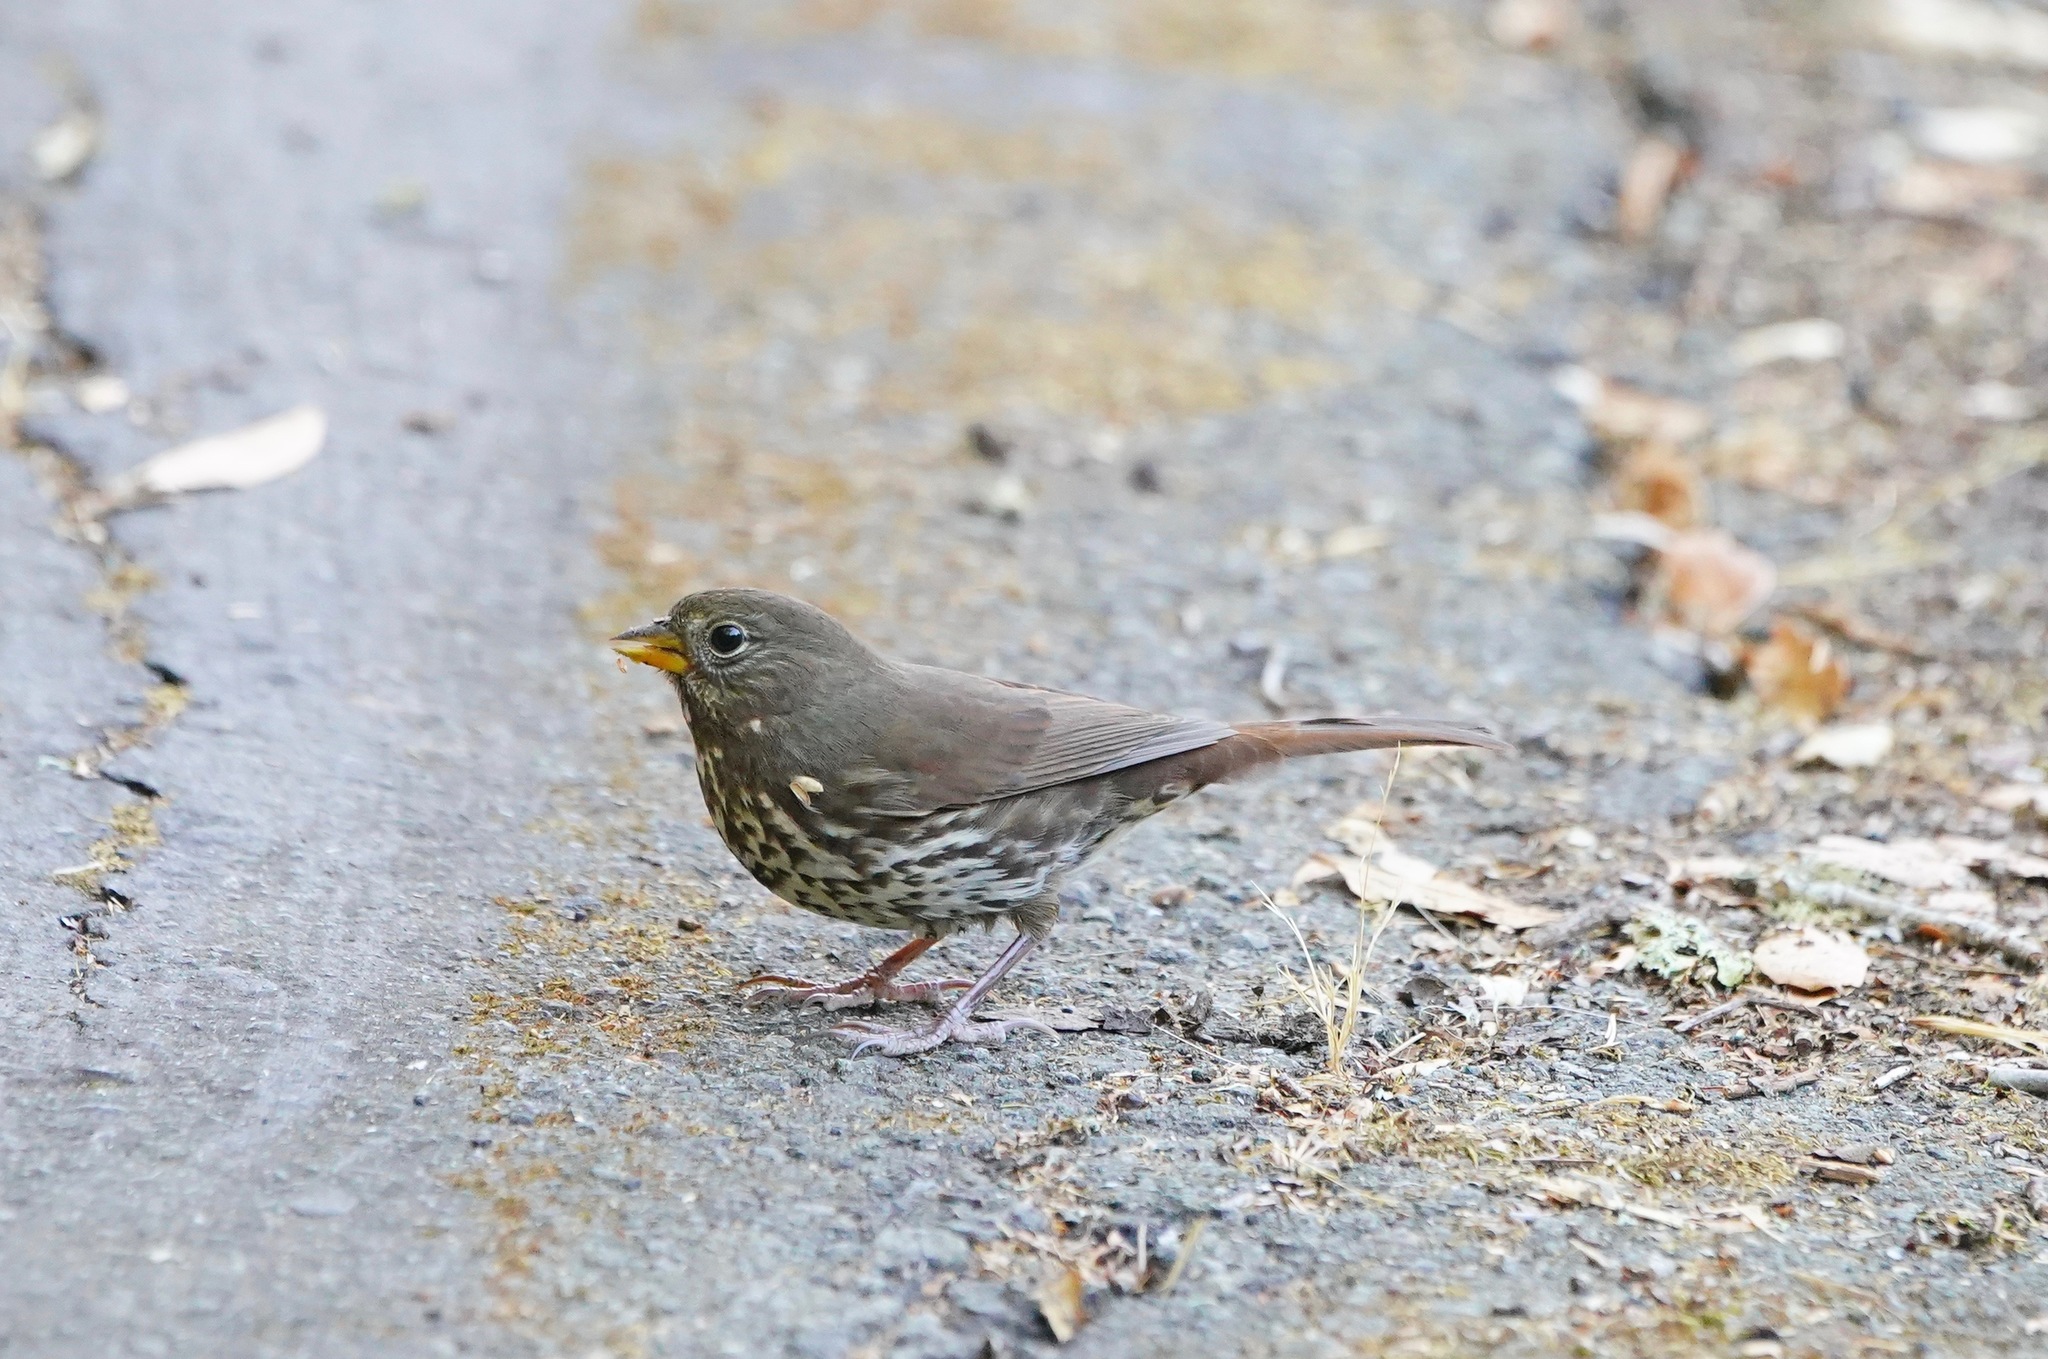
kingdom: Animalia
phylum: Chordata
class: Aves
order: Passeriformes
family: Passerellidae
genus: Passerella
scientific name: Passerella iliaca
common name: Fox sparrow
